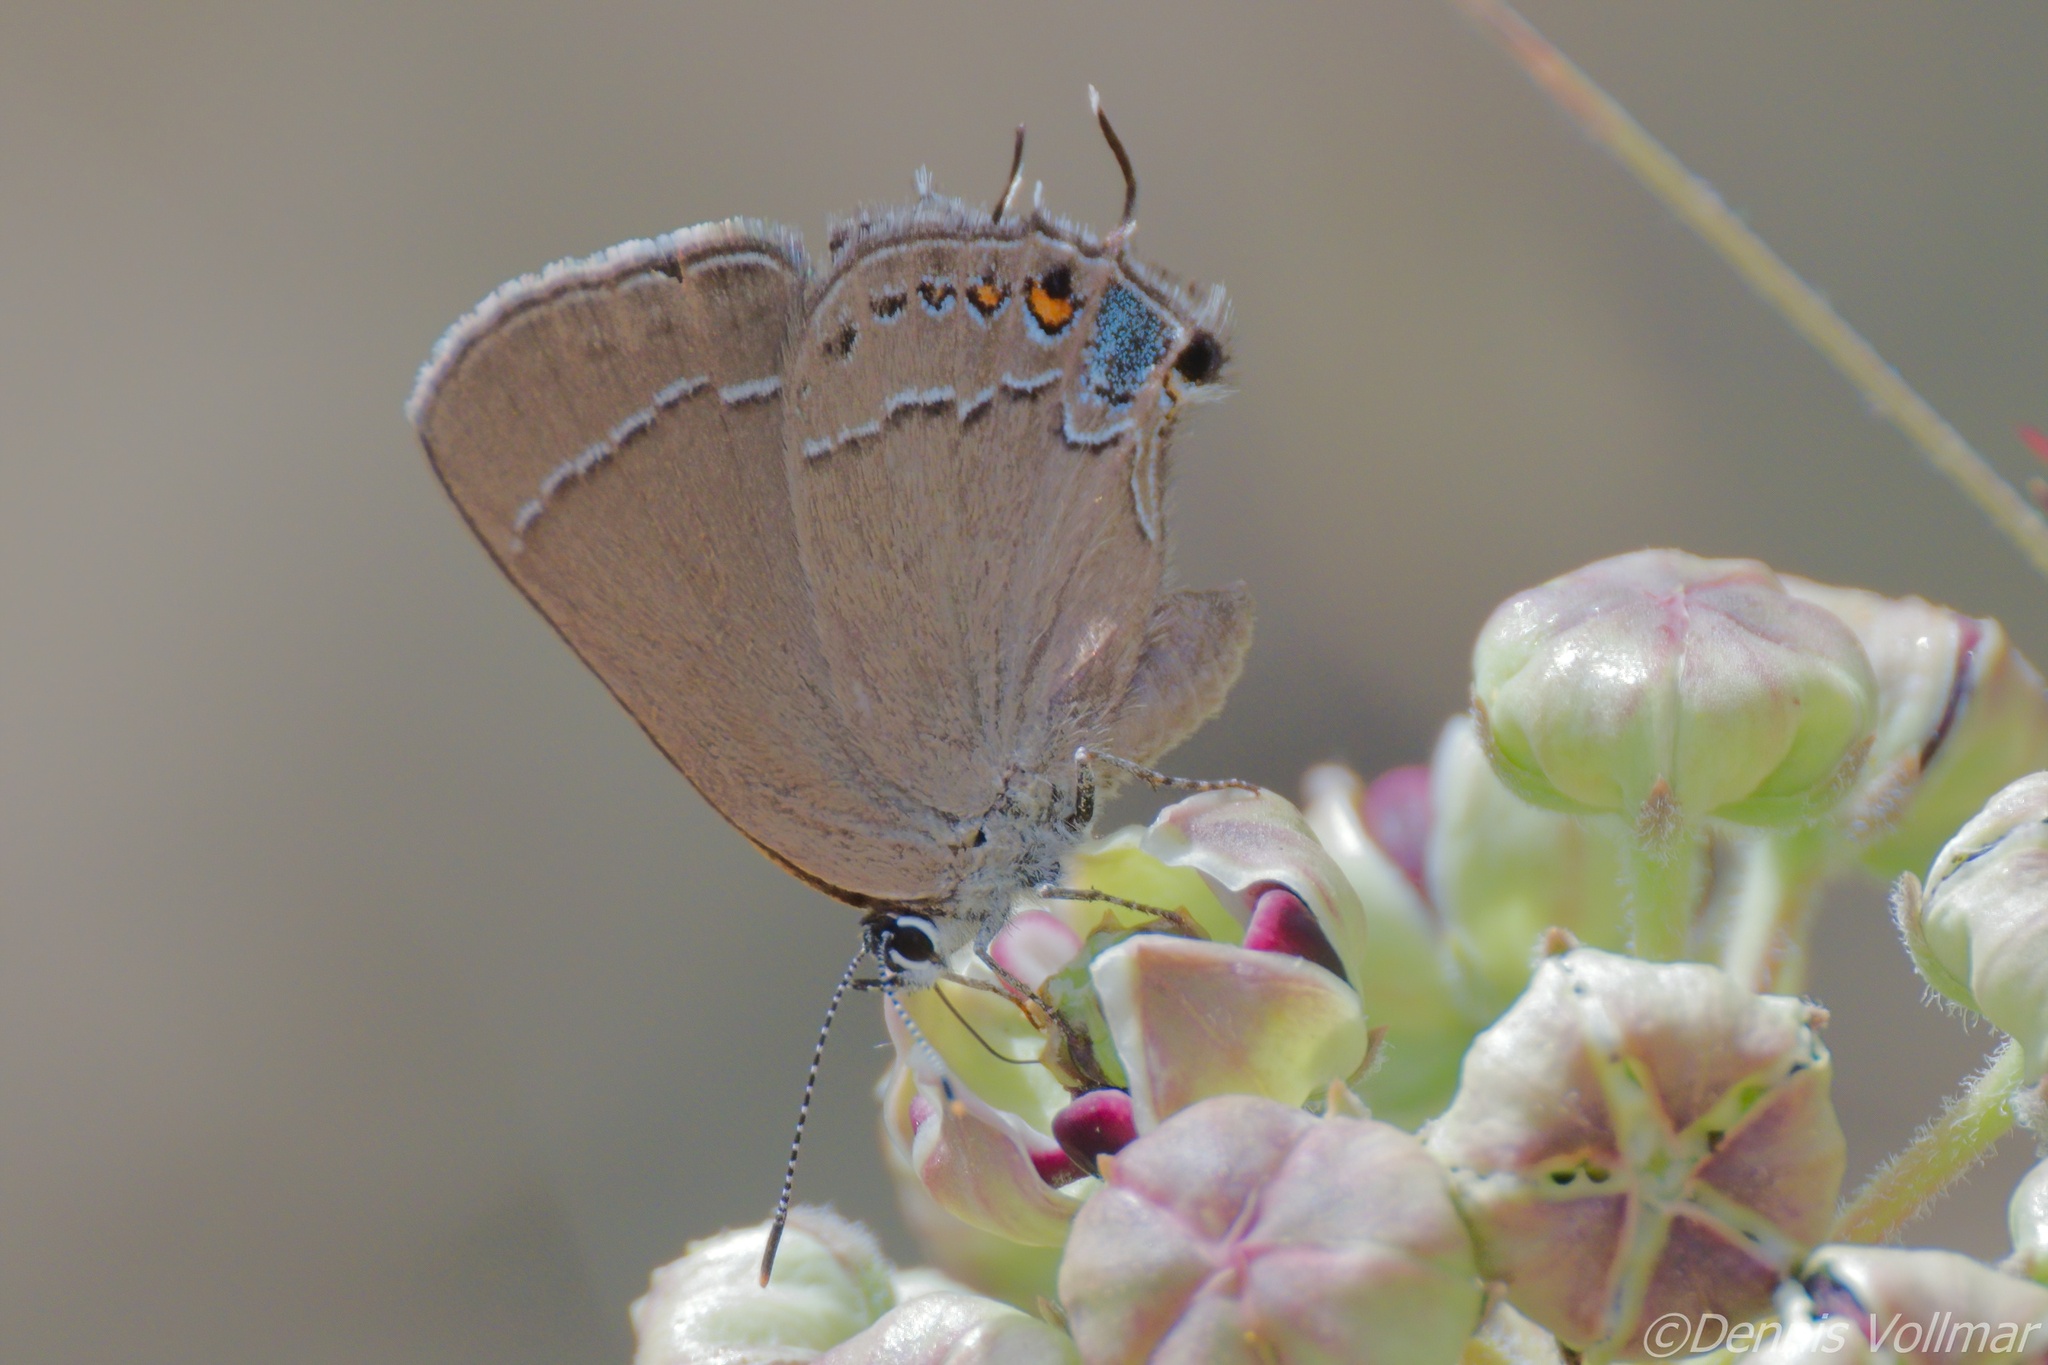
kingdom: Animalia
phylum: Arthropoda
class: Insecta
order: Lepidoptera
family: Lycaenidae
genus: Fixsenia
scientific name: Fixsenia polingi
